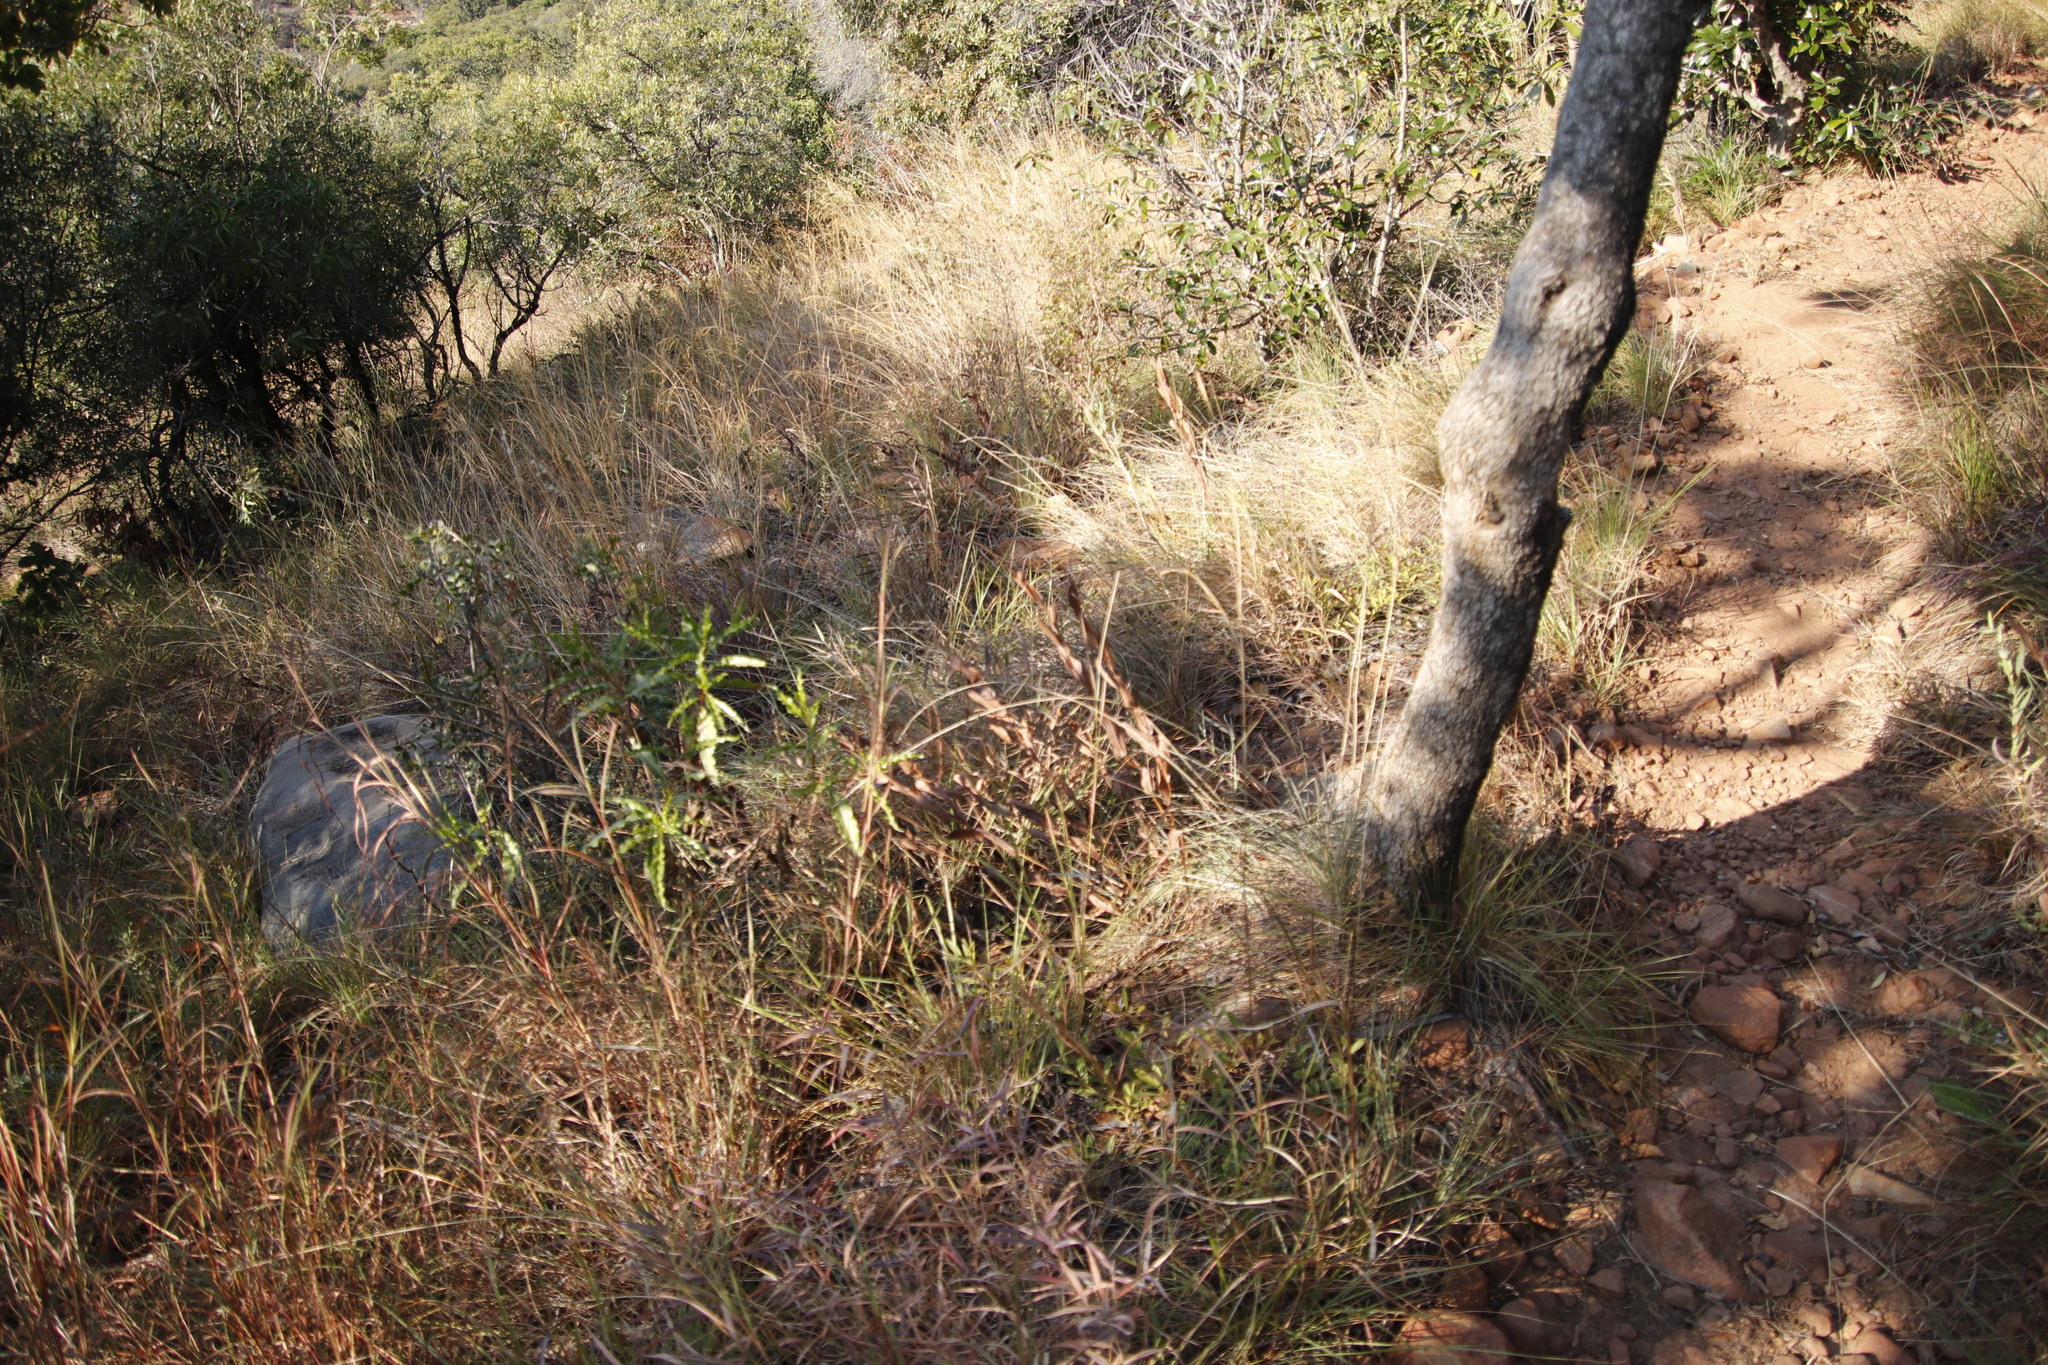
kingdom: Plantae
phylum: Tracheophyta
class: Magnoliopsida
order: Gentianales
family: Rubiaceae
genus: Fadogia
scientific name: Fadogia homblei
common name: Wild date
